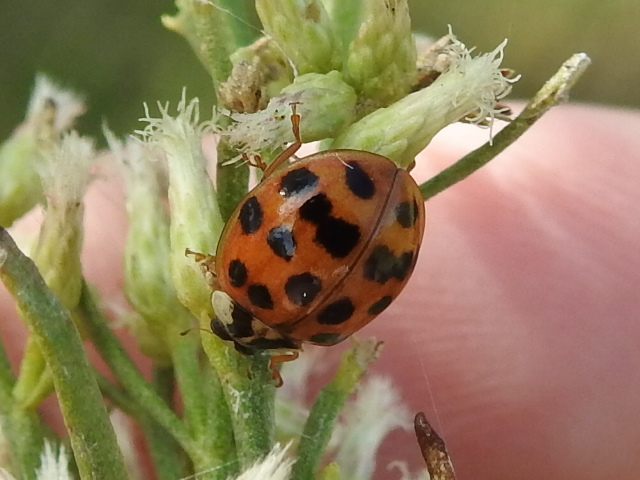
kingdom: Animalia
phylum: Arthropoda
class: Insecta
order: Coleoptera
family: Coccinellidae
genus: Harmonia
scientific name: Harmonia axyridis
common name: Harlequin ladybird
